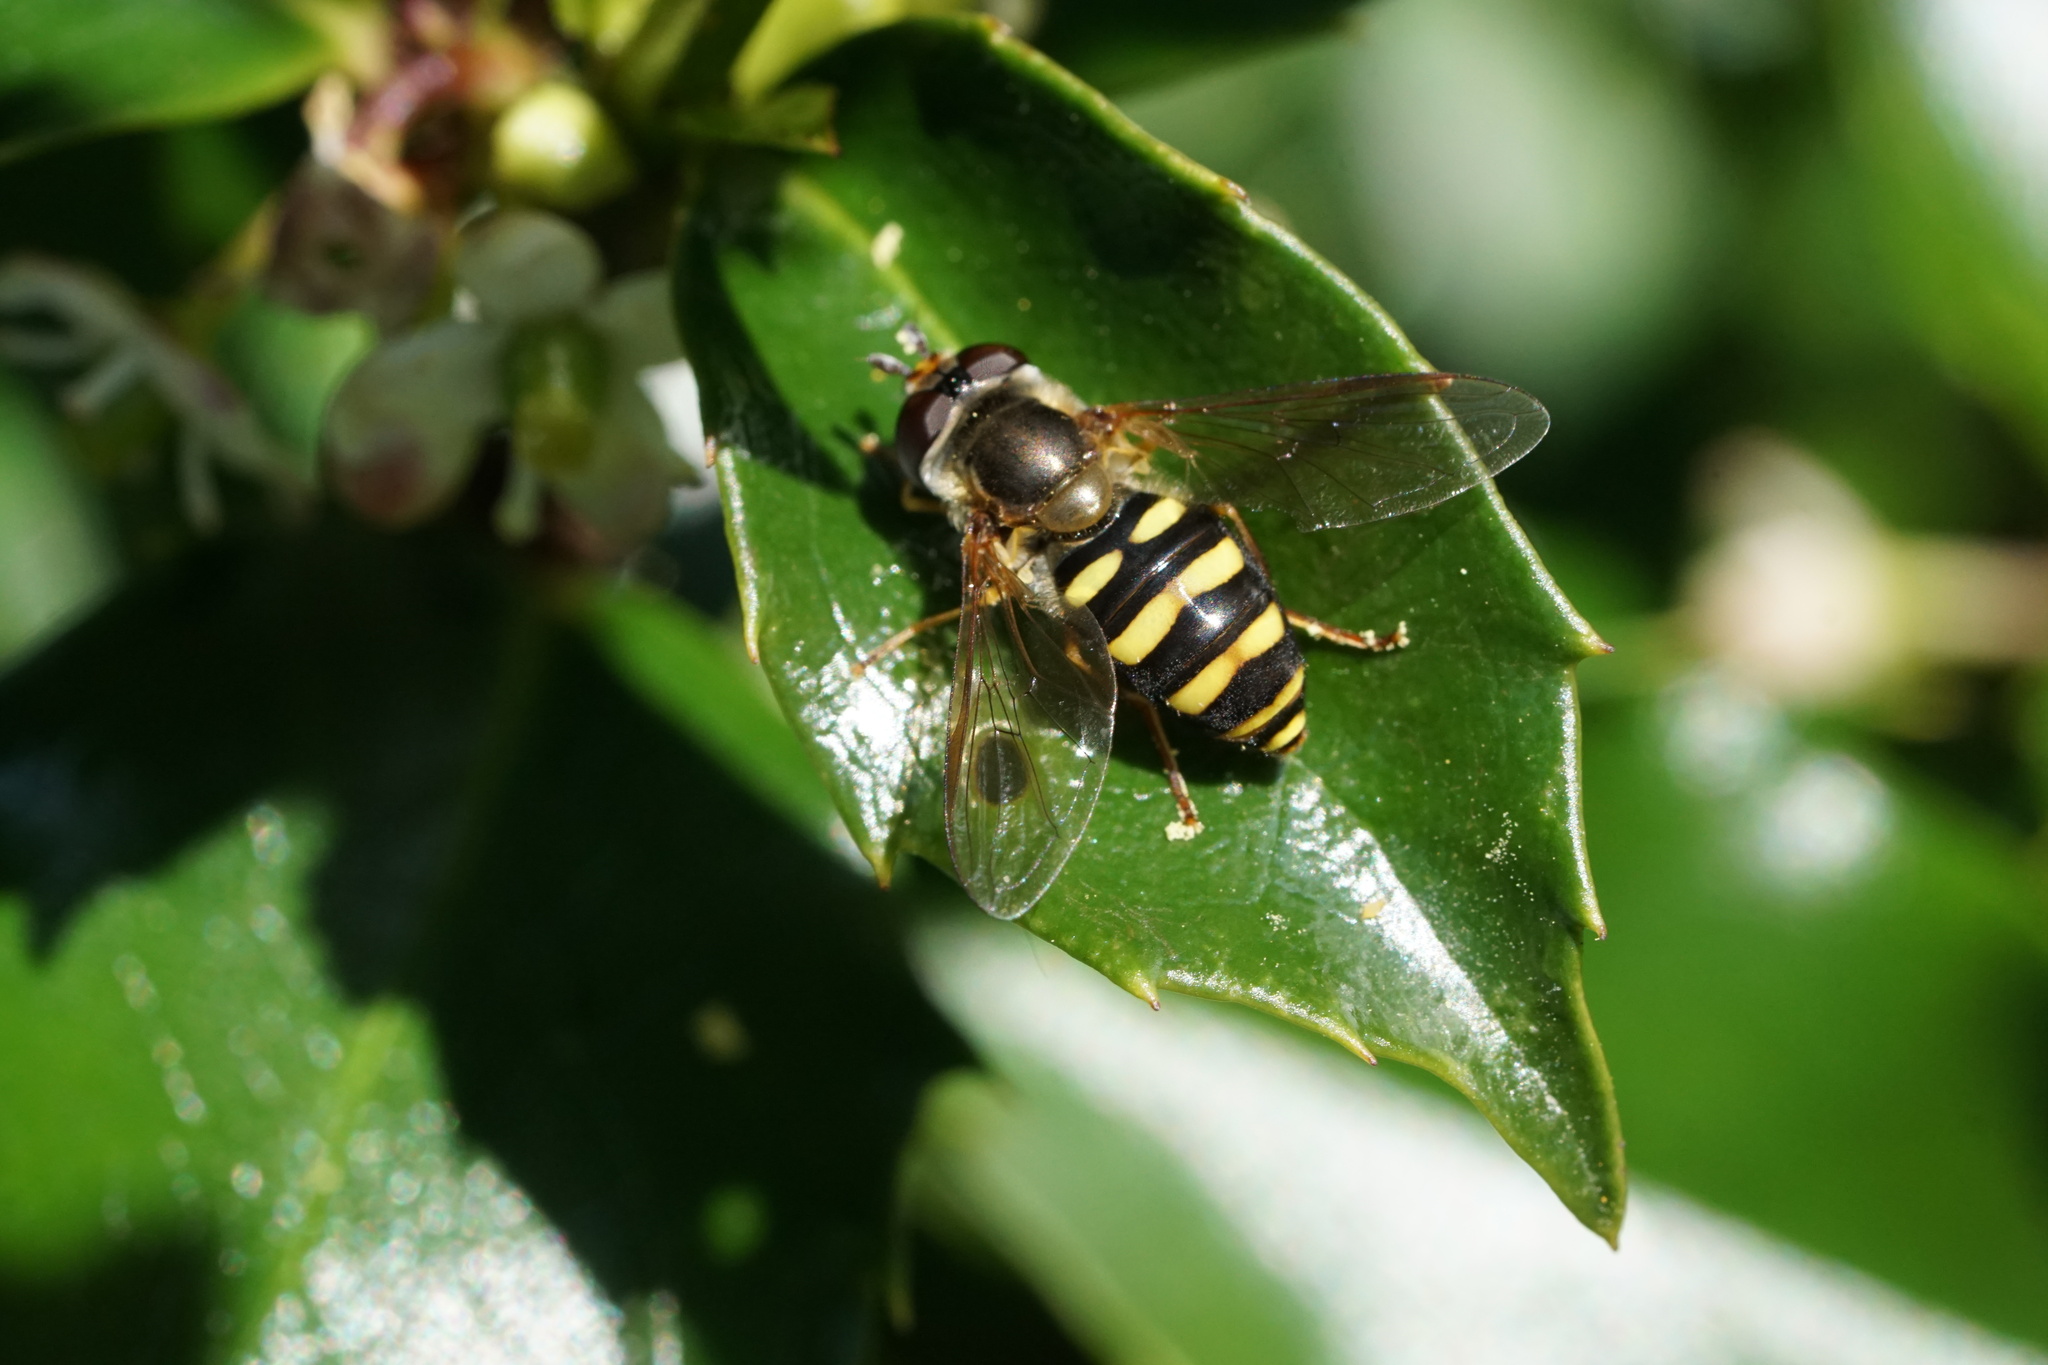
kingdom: Animalia
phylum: Arthropoda
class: Insecta
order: Diptera
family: Syrphidae
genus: Eupeodes
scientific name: Eupeodes
